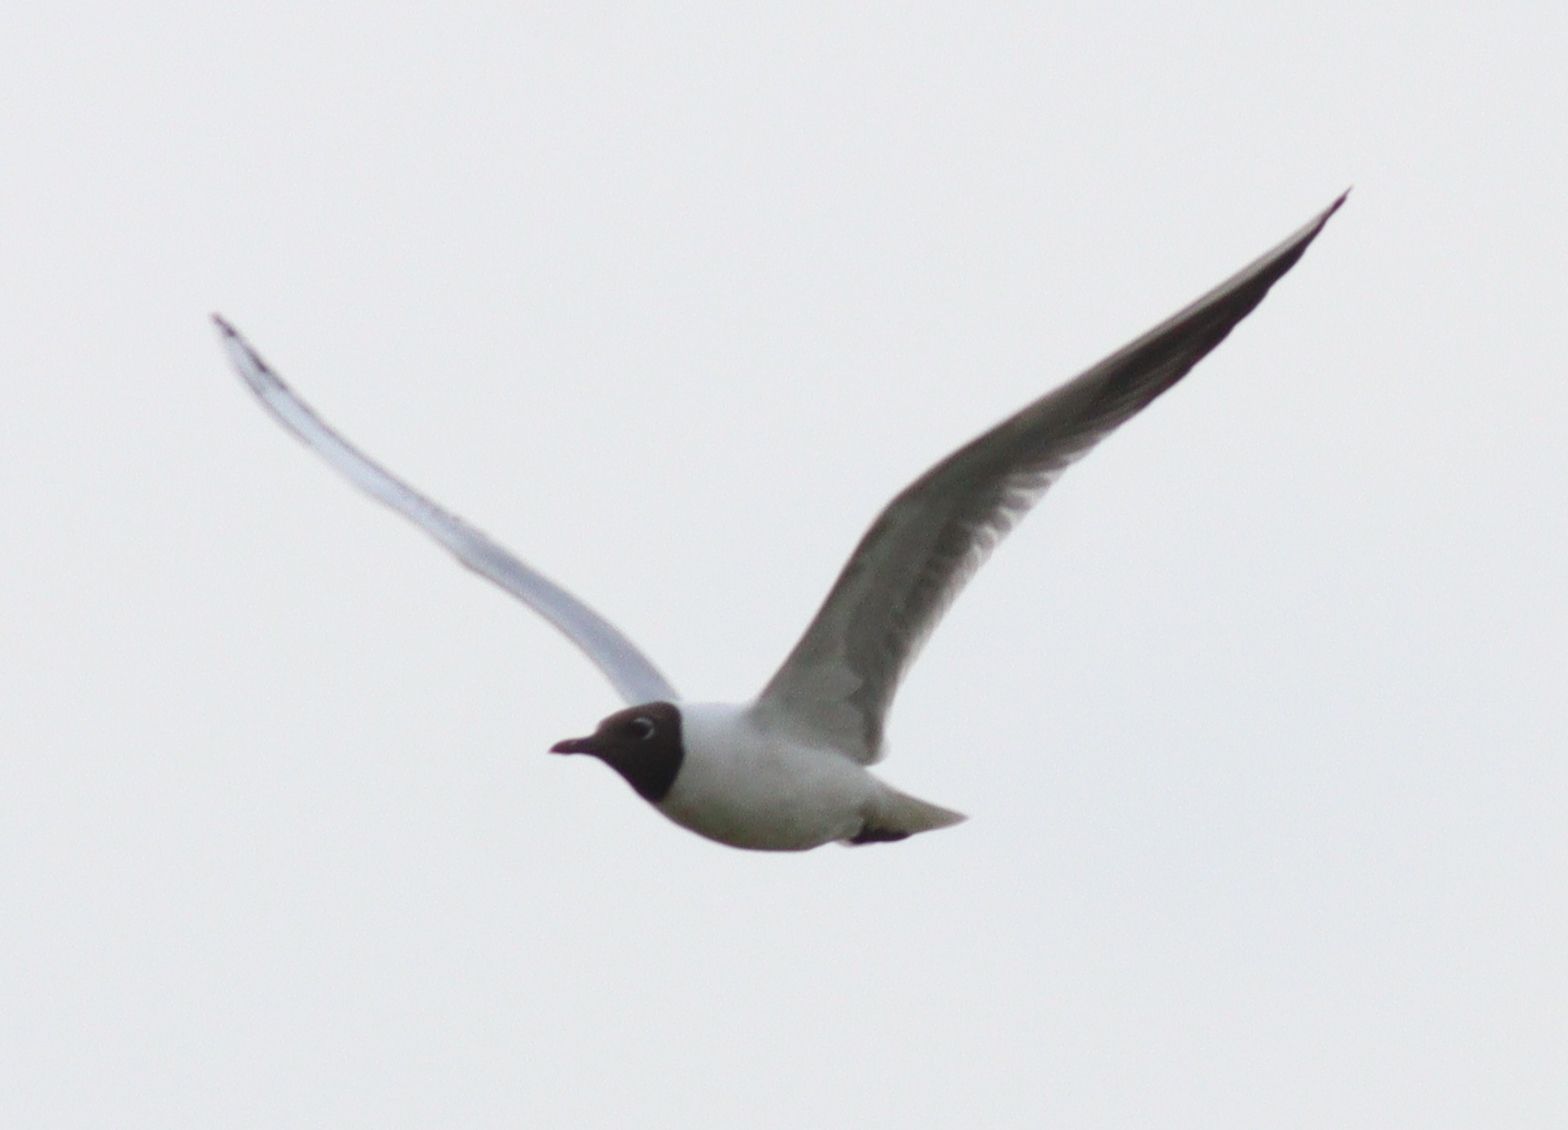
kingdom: Animalia
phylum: Chordata
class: Aves
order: Charadriiformes
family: Laridae
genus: Chroicocephalus
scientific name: Chroicocephalus ridibundus
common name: Black-headed gull
